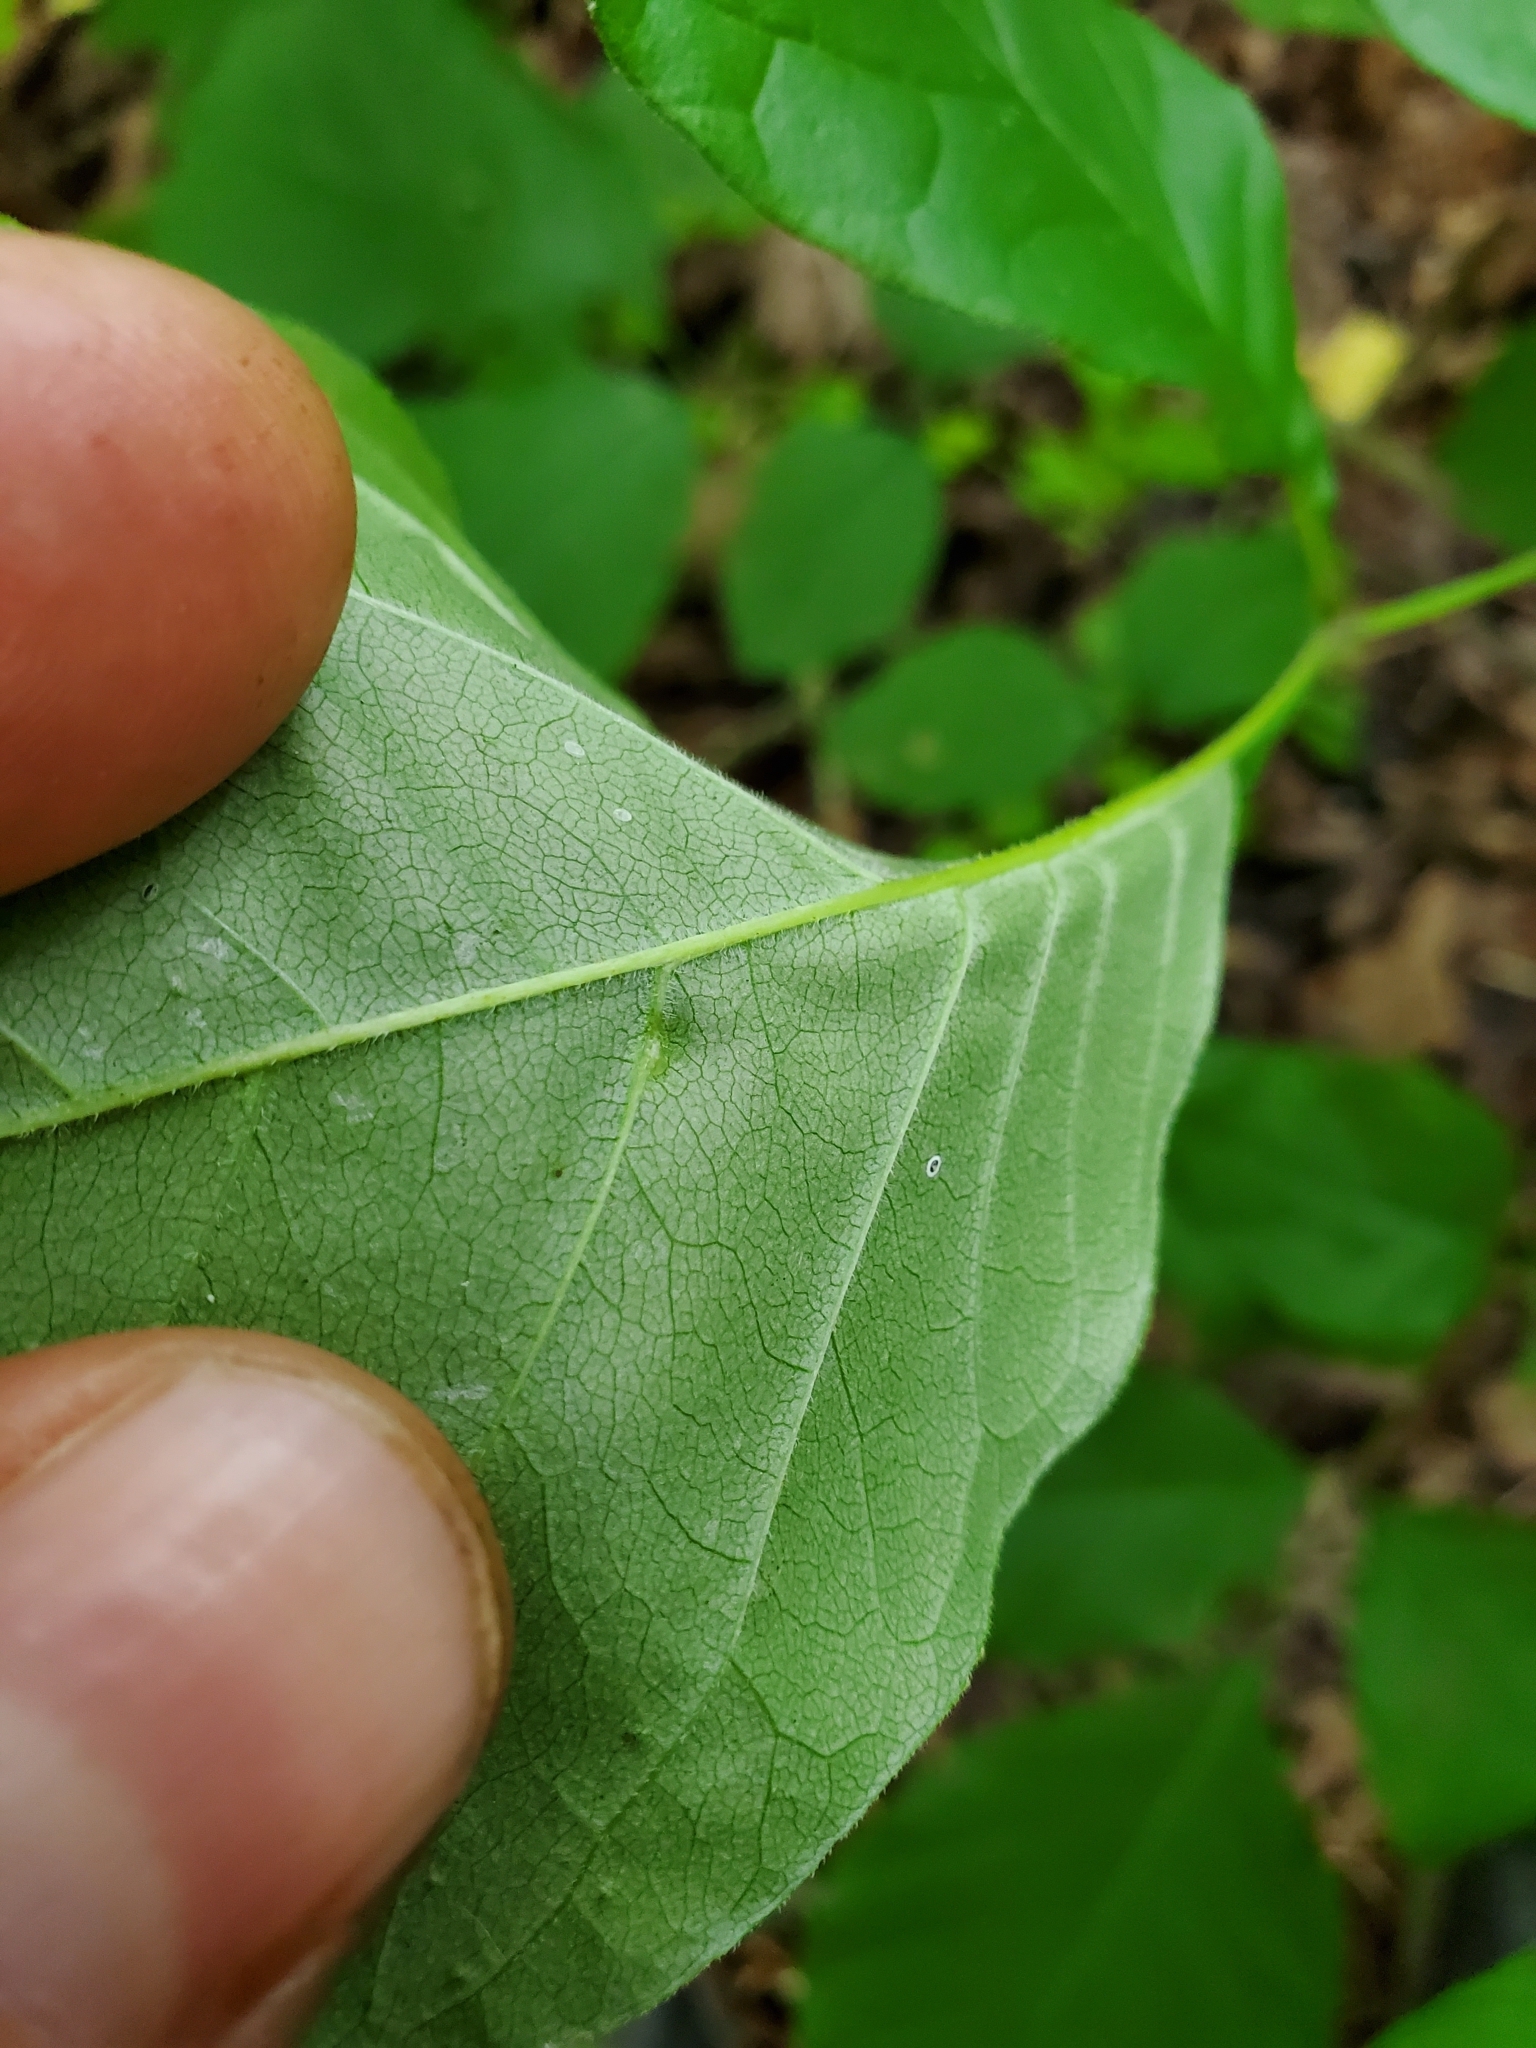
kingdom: Animalia
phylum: Arthropoda
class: Insecta
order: Diptera
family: Cecidomyiidae
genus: Dasineura
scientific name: Dasineura pellex
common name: Ash bullet gall midge
